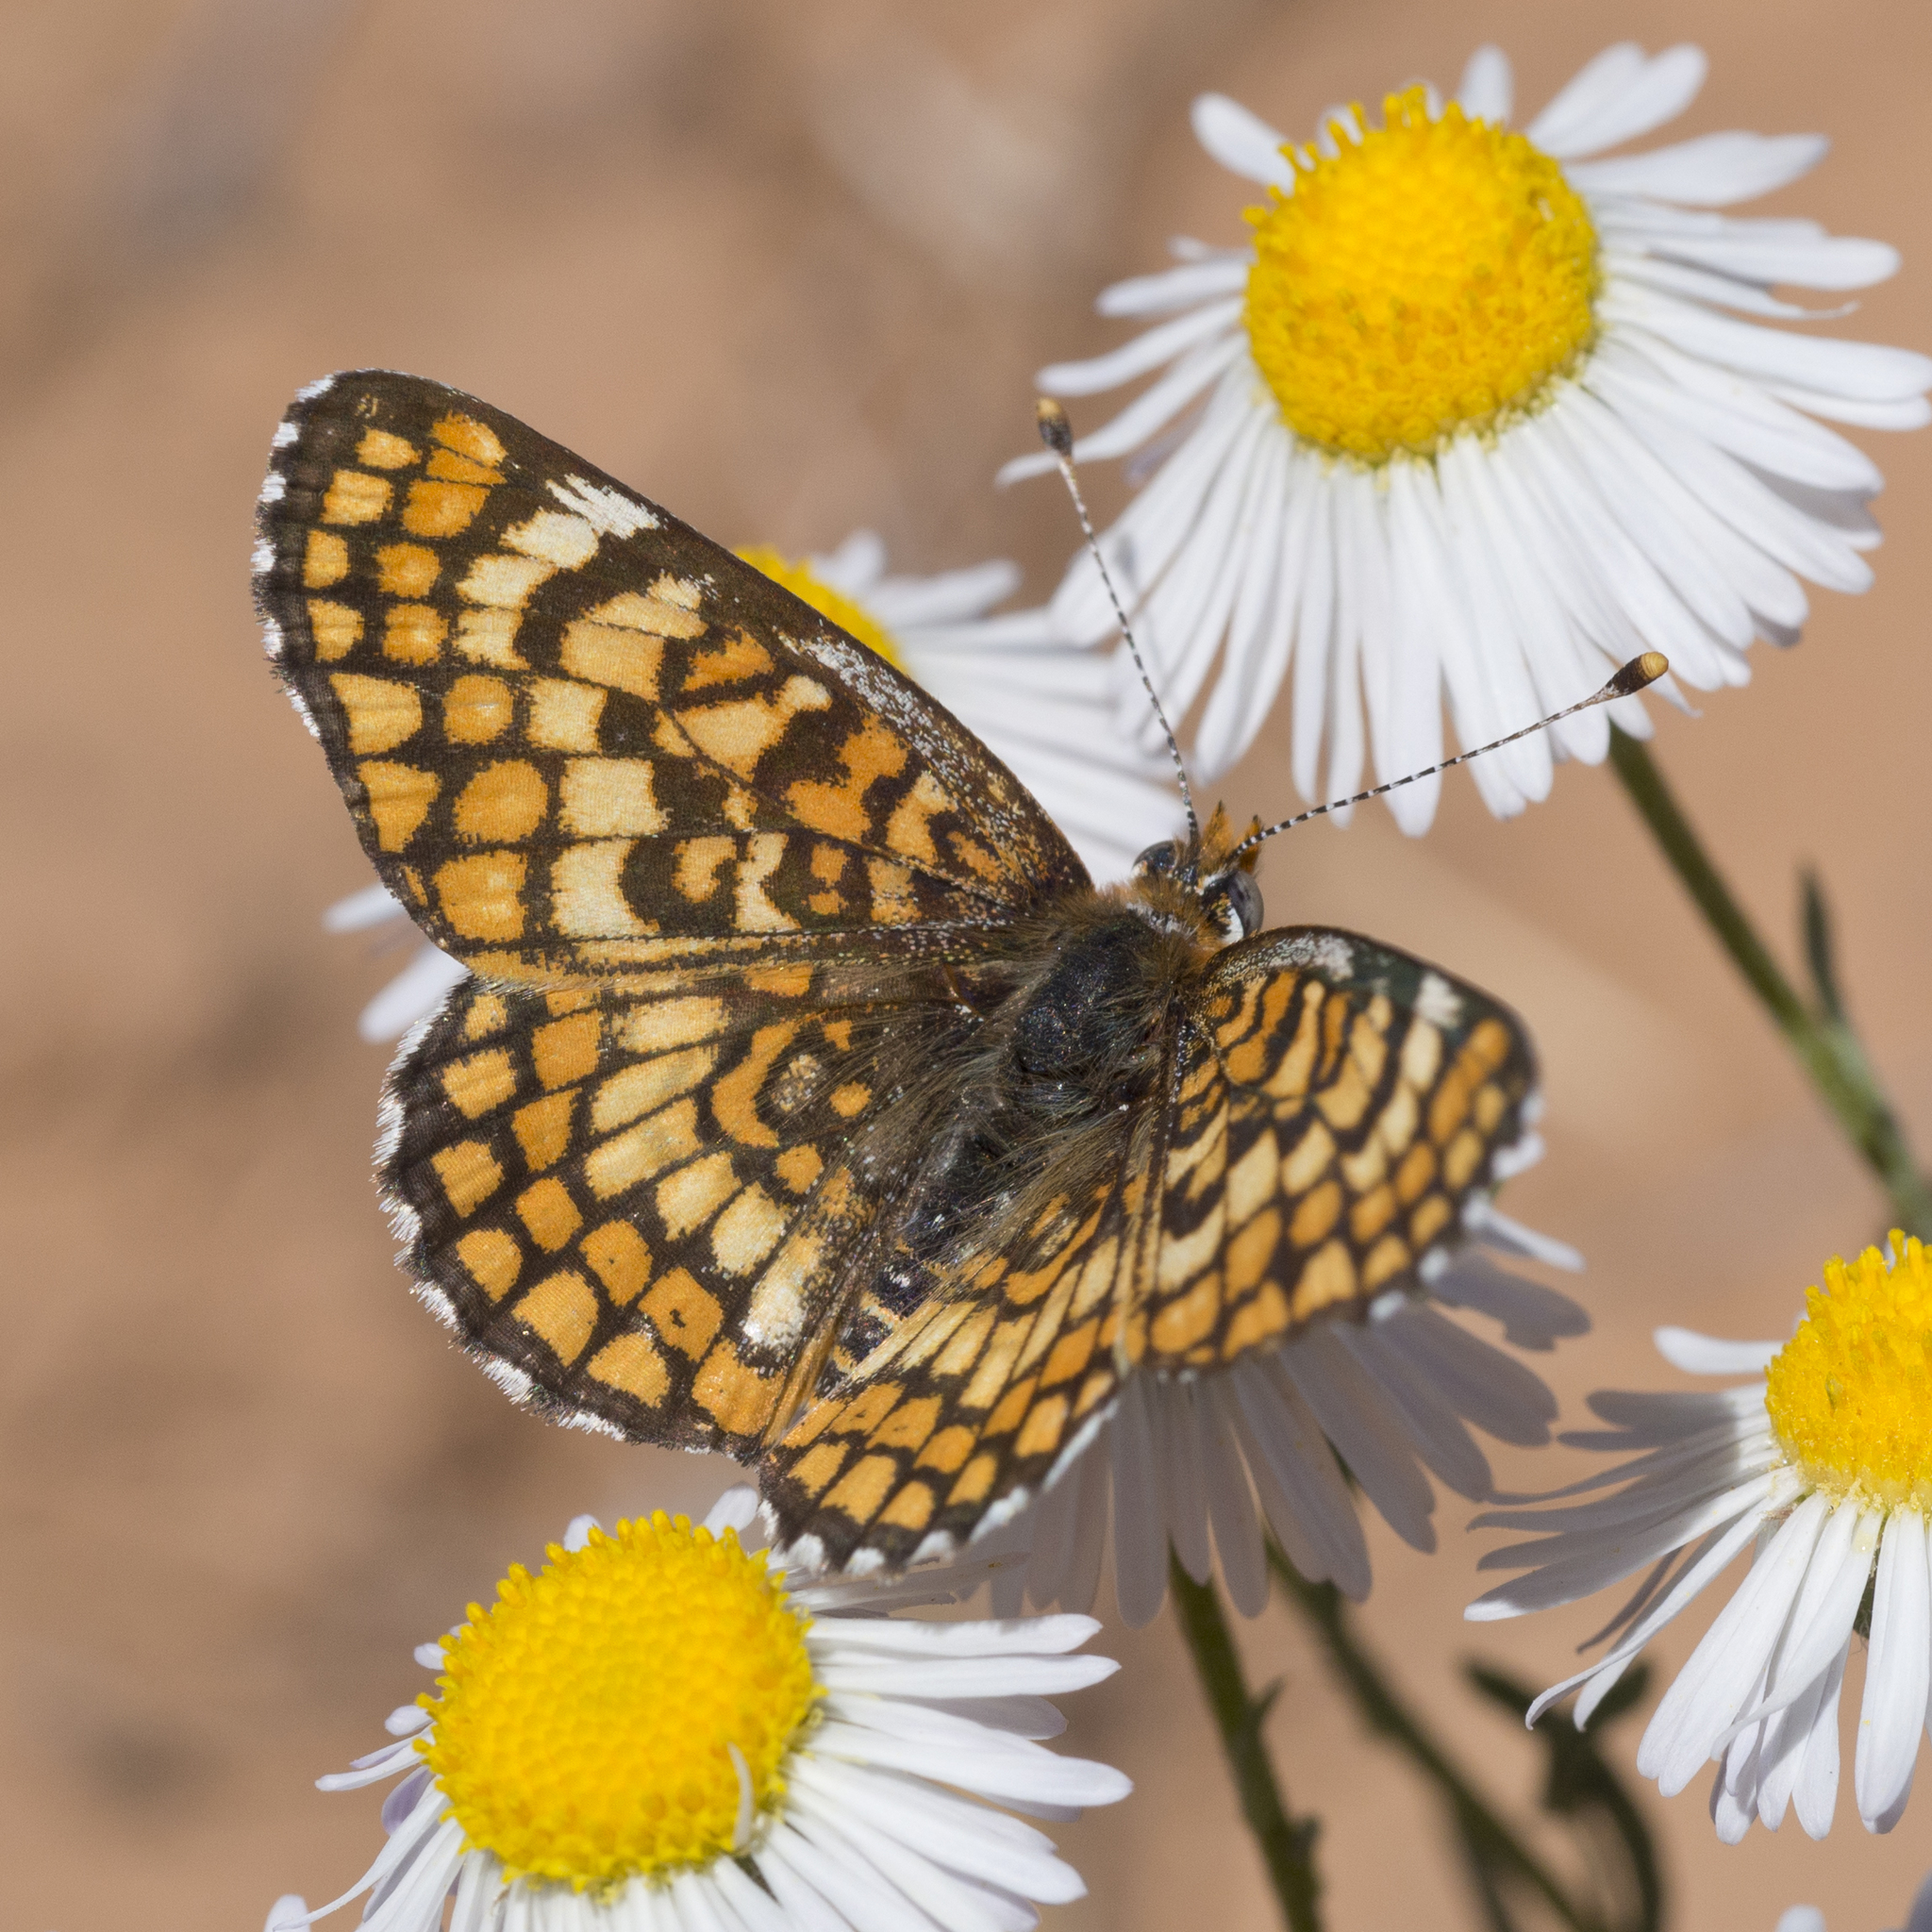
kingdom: Animalia
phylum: Arthropoda
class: Insecta
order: Lepidoptera
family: Nymphalidae
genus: Poladryas
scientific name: Poladryas minuta
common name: Dotted checkerspot
